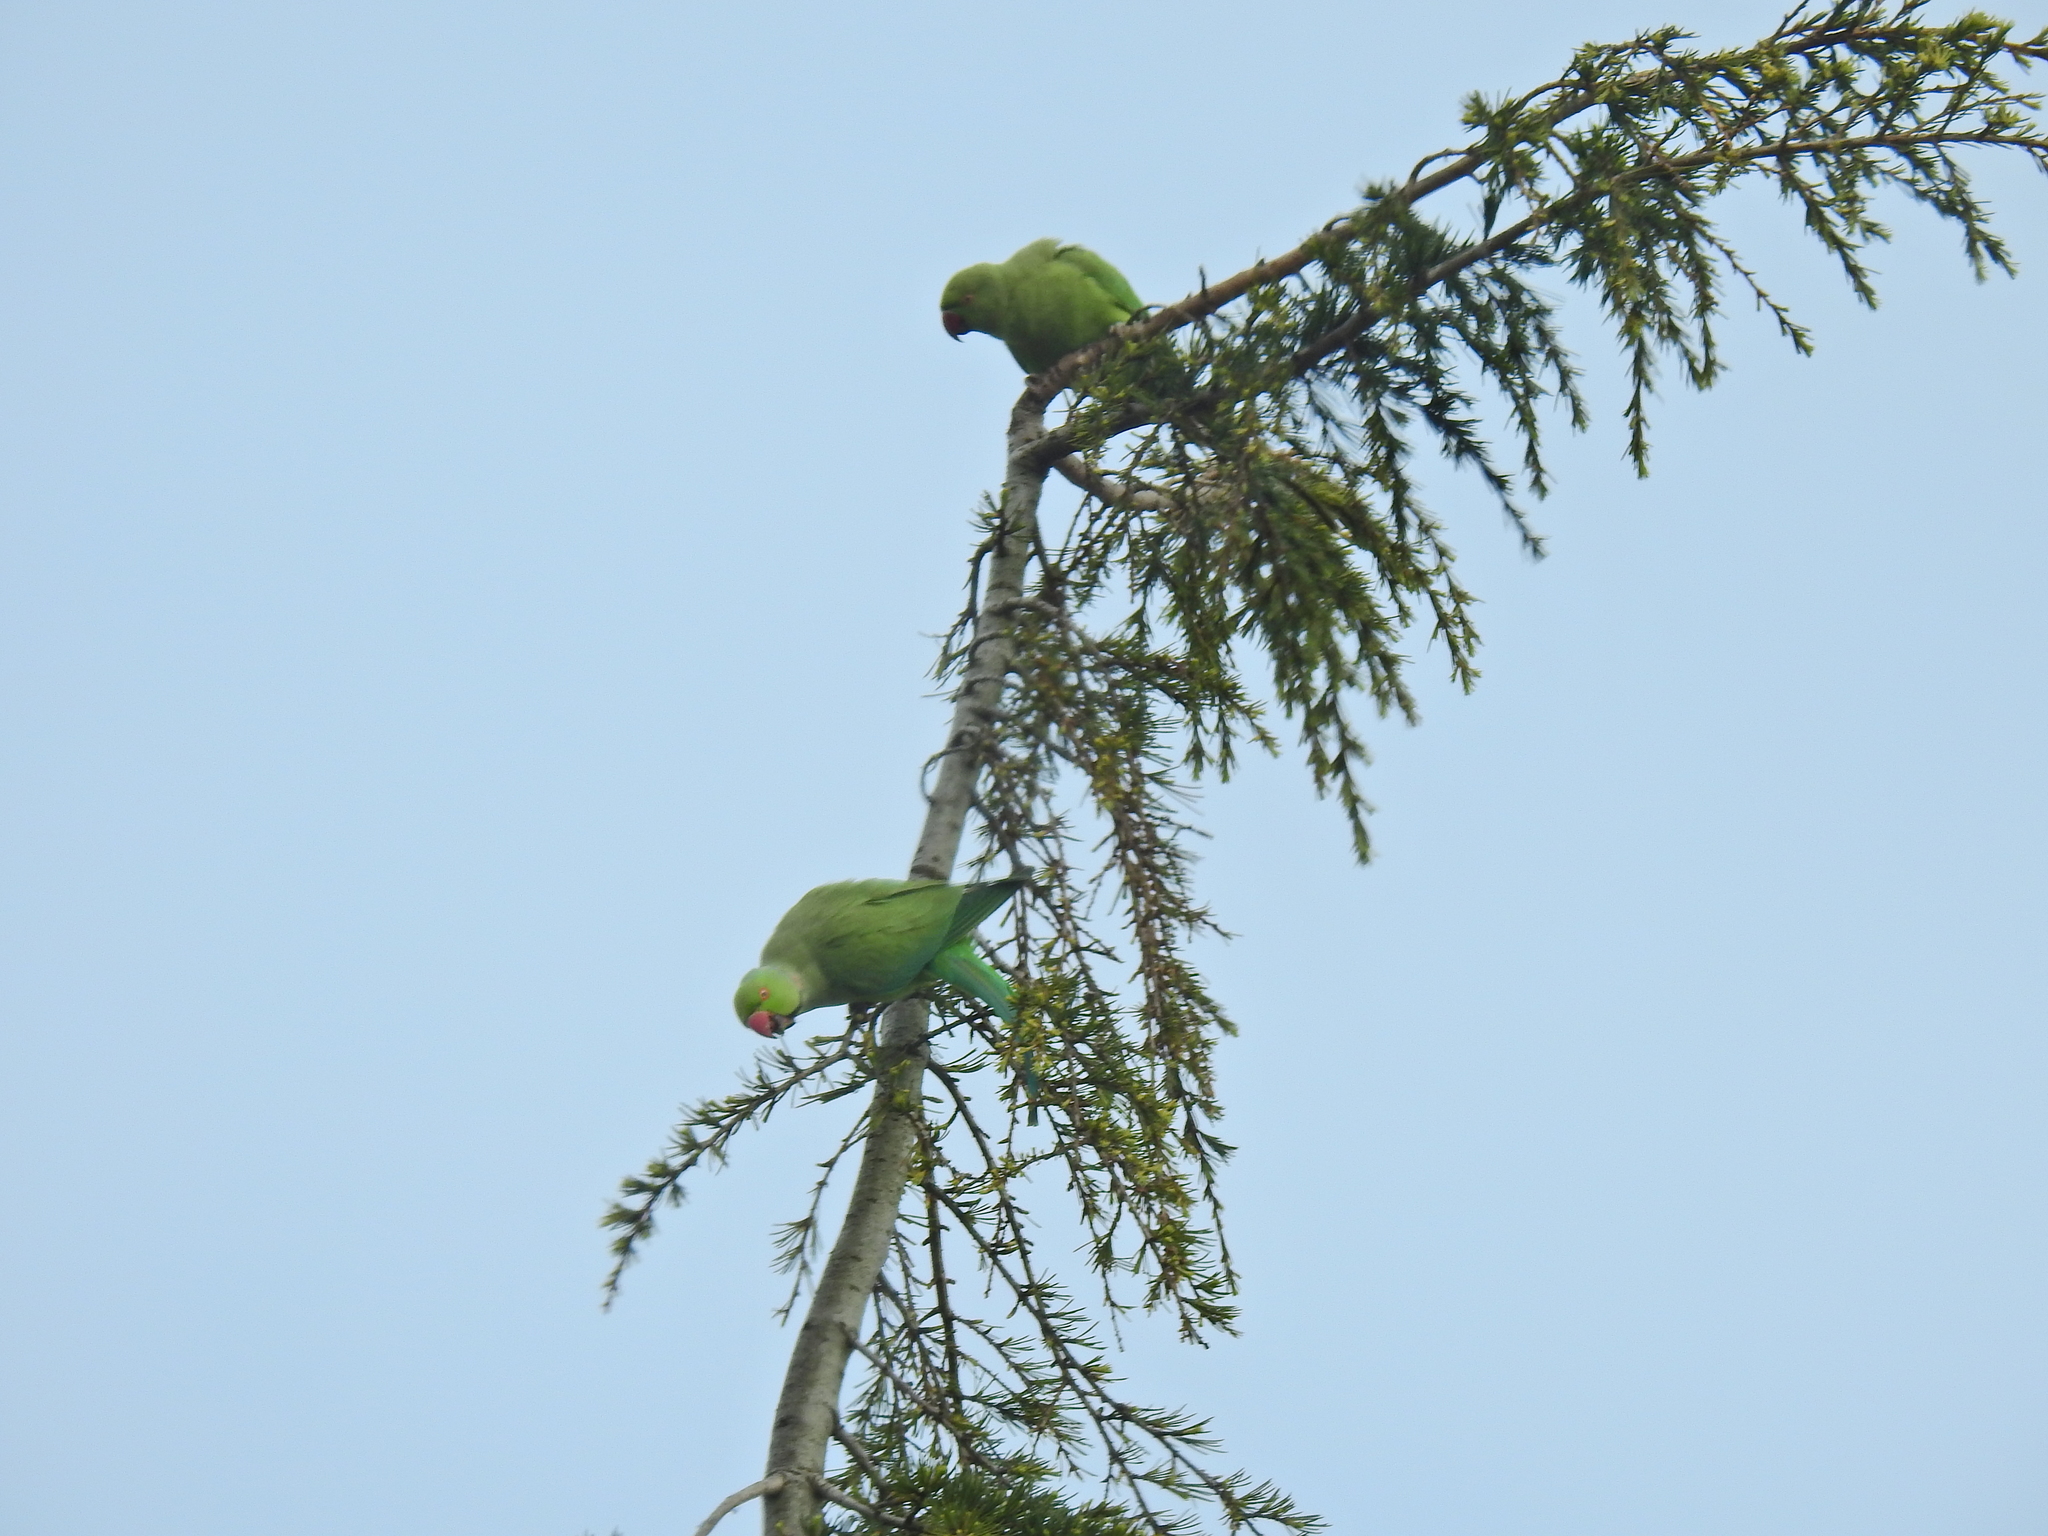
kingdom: Animalia
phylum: Chordata
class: Aves
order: Psittaciformes
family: Psittacidae
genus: Psittacula
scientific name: Psittacula krameri
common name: Rose-ringed parakeet
